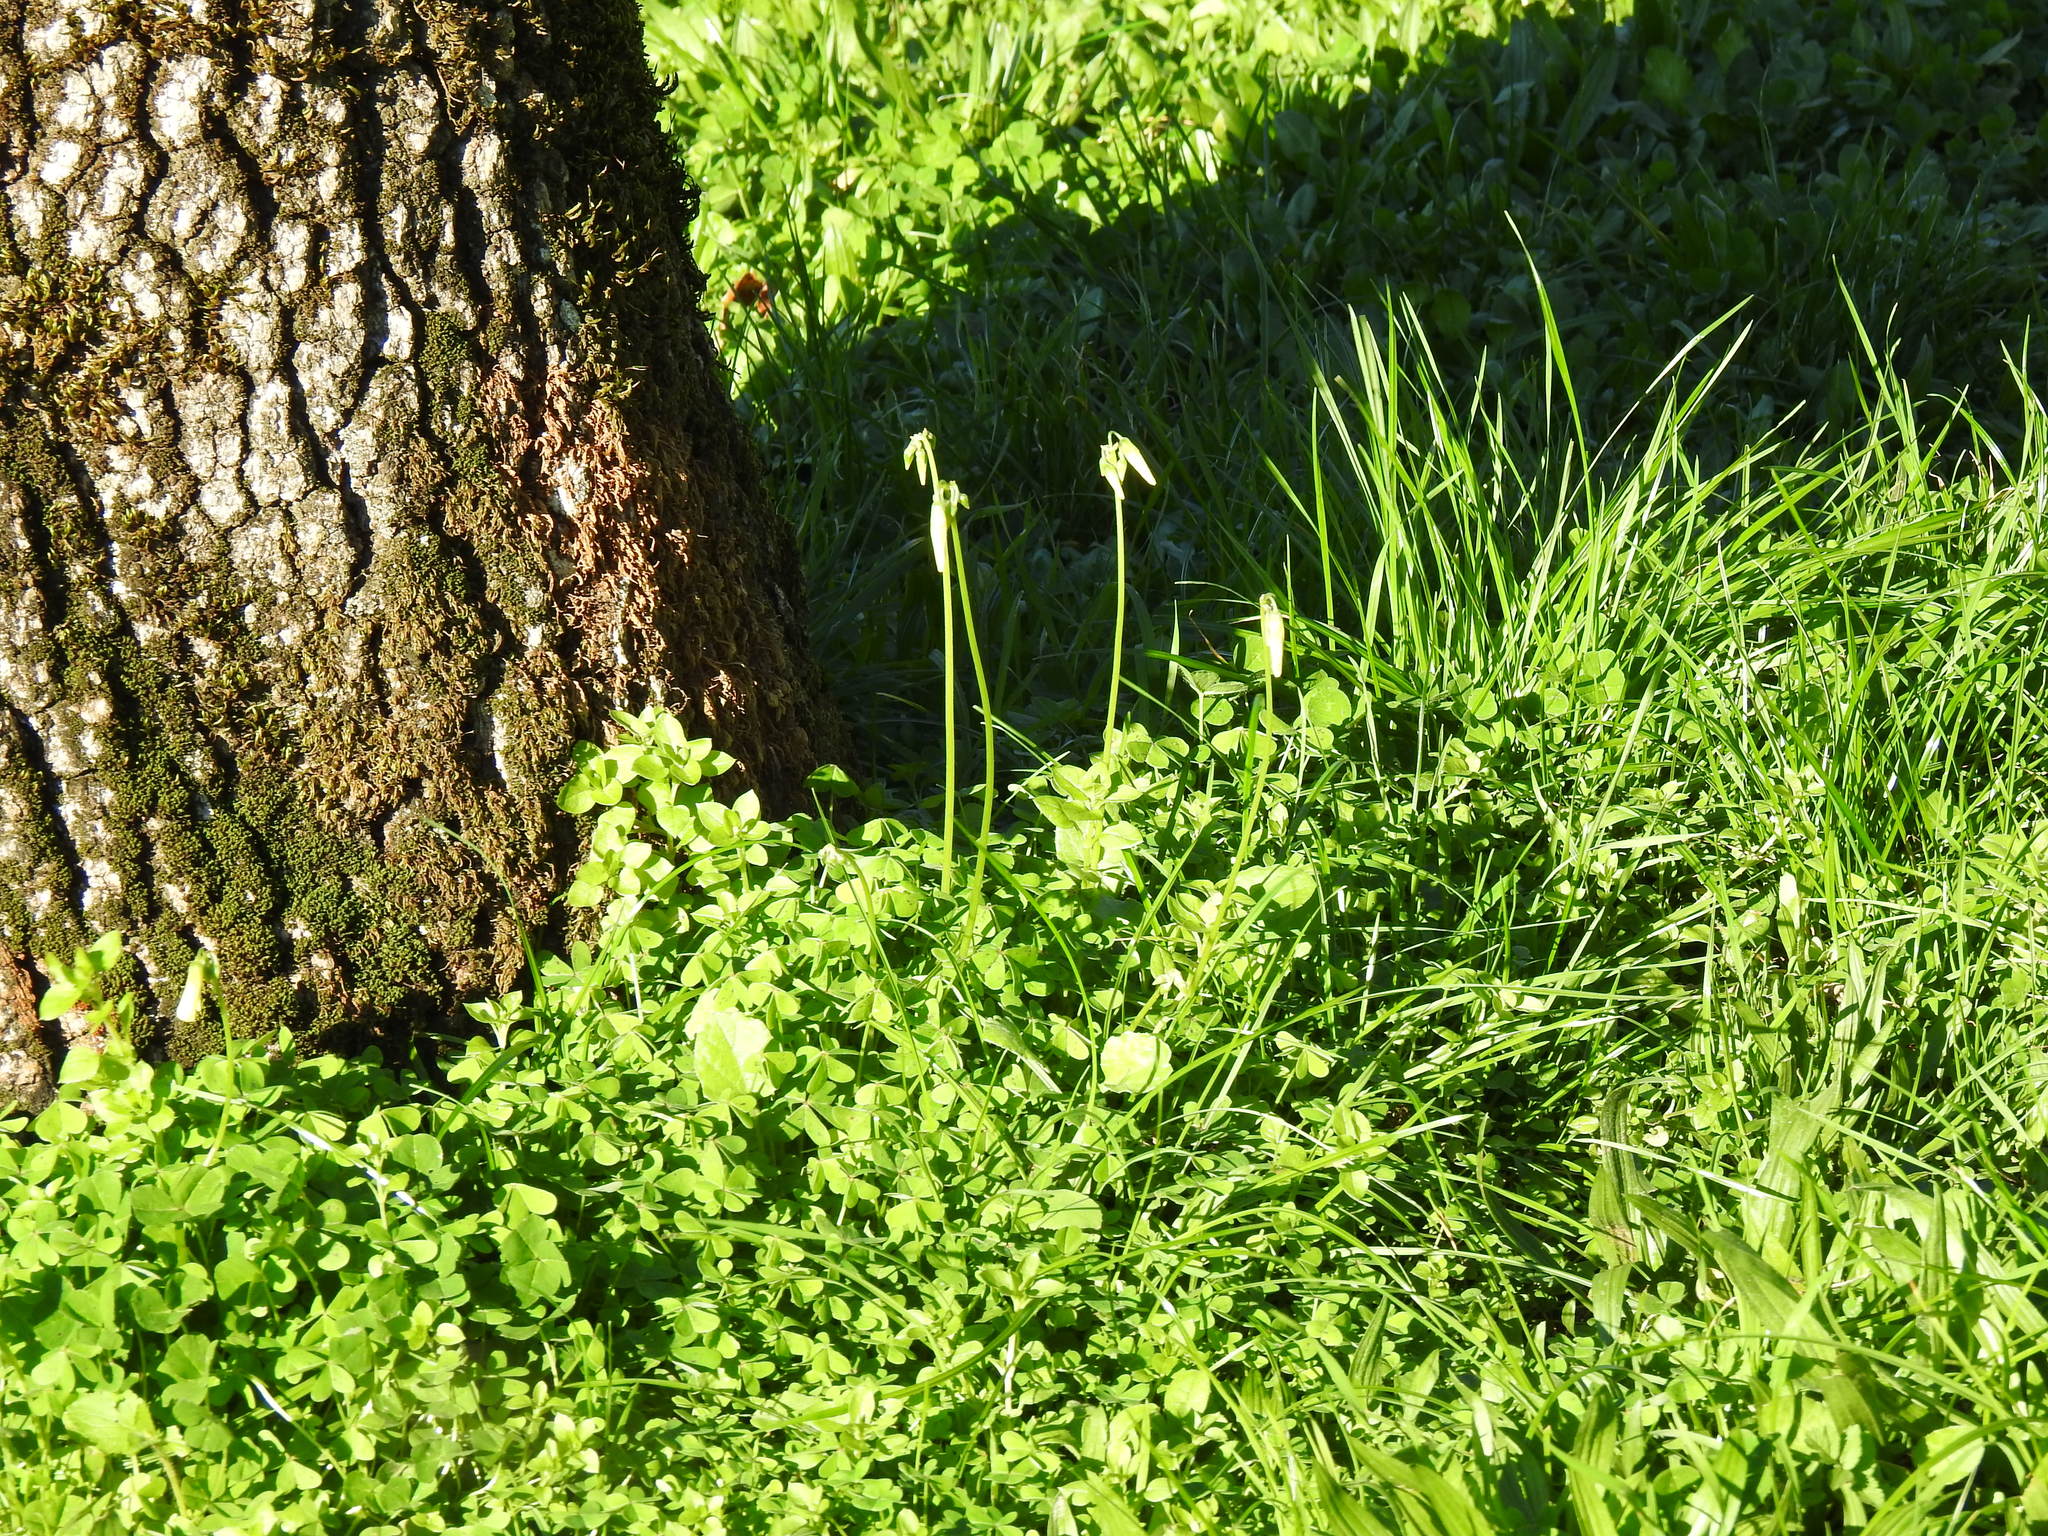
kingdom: Plantae
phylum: Tracheophyta
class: Magnoliopsida
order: Oxalidales
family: Oxalidaceae
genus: Oxalis
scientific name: Oxalis pes-caprae
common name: Bermuda-buttercup
